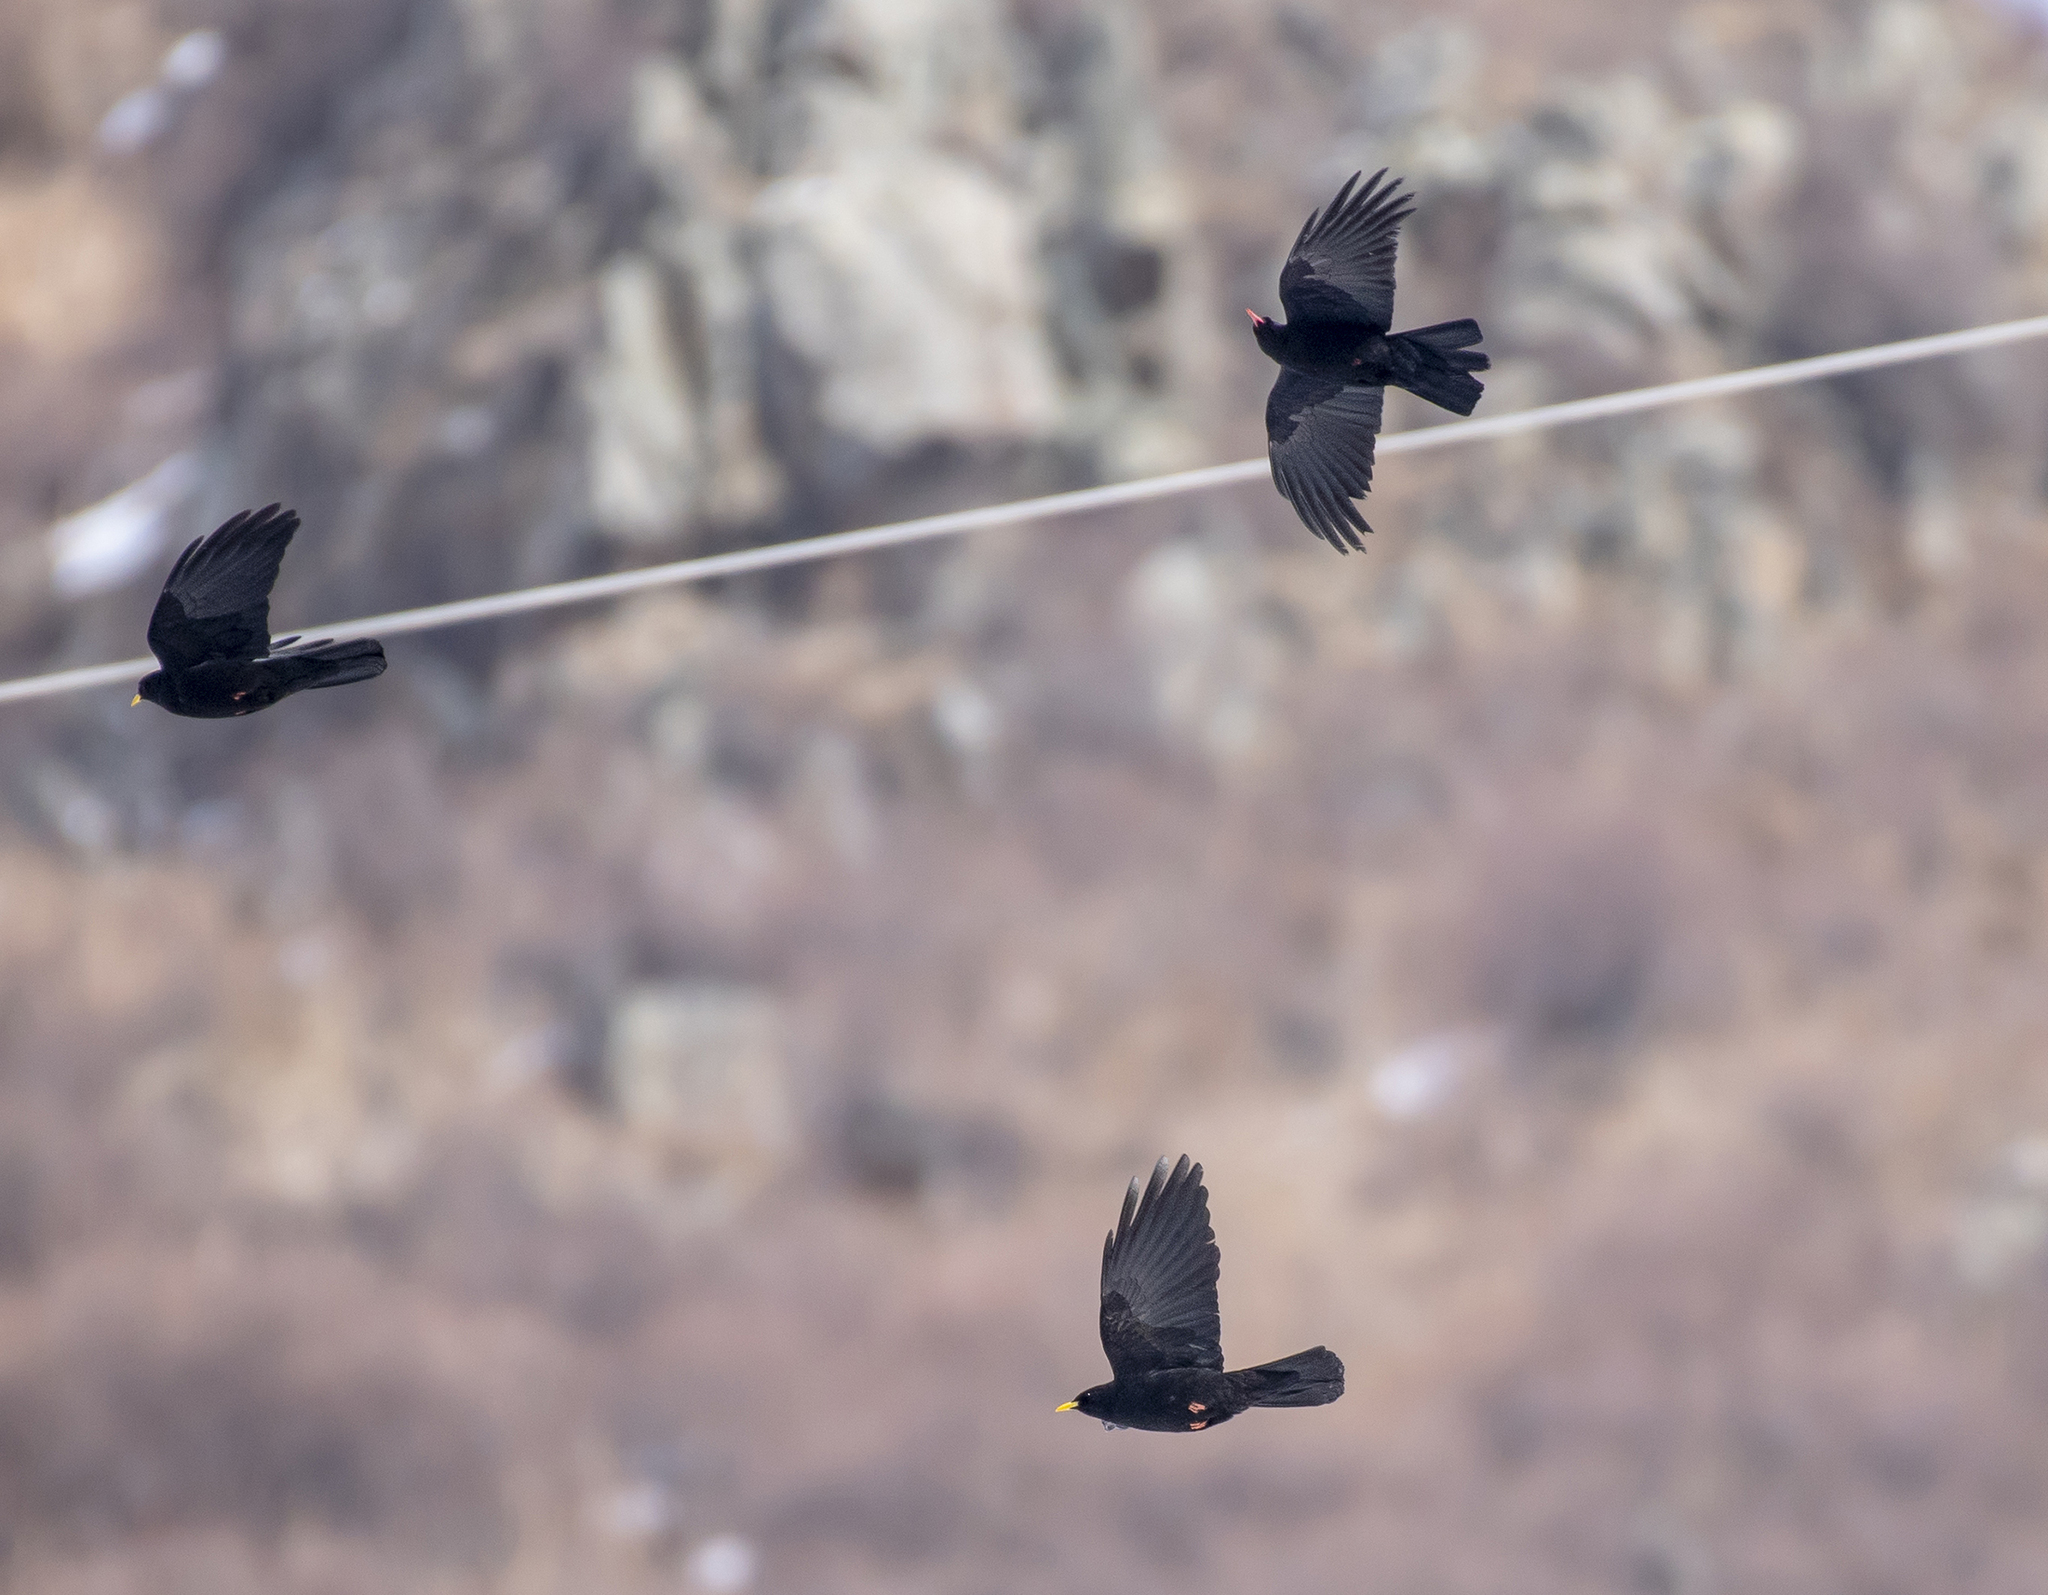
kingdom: Animalia
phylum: Chordata
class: Aves
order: Passeriformes
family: Corvidae
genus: Pyrrhocorax
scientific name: Pyrrhocorax graculus
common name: Alpine chough
